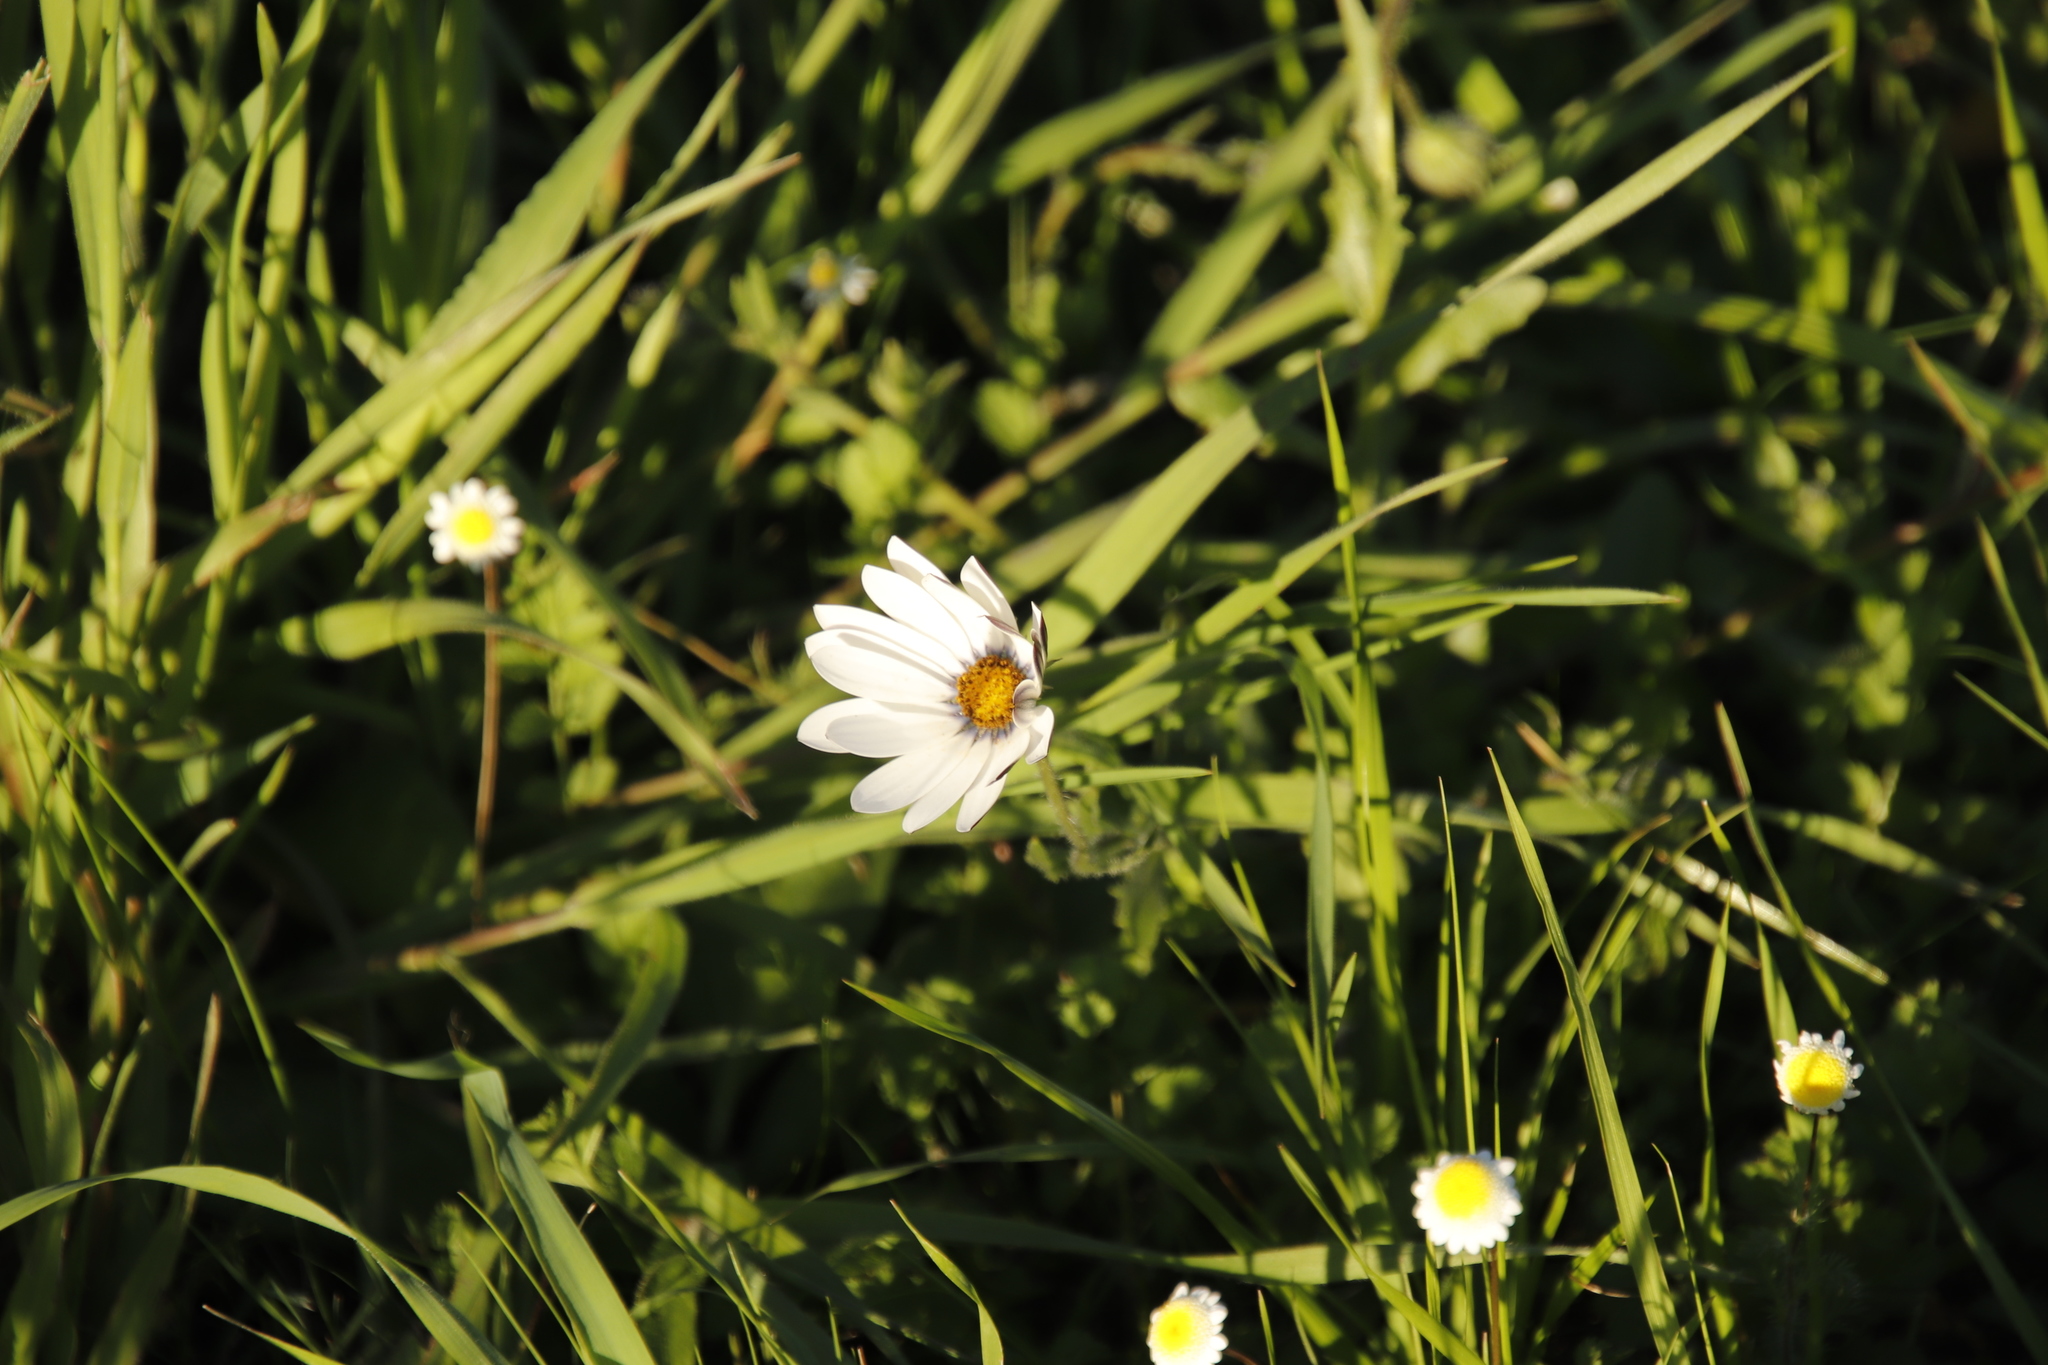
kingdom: Plantae
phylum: Tracheophyta
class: Magnoliopsida
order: Asterales
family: Asteraceae
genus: Dimorphotheca
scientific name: Dimorphotheca pluvialis
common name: Weather prophet
